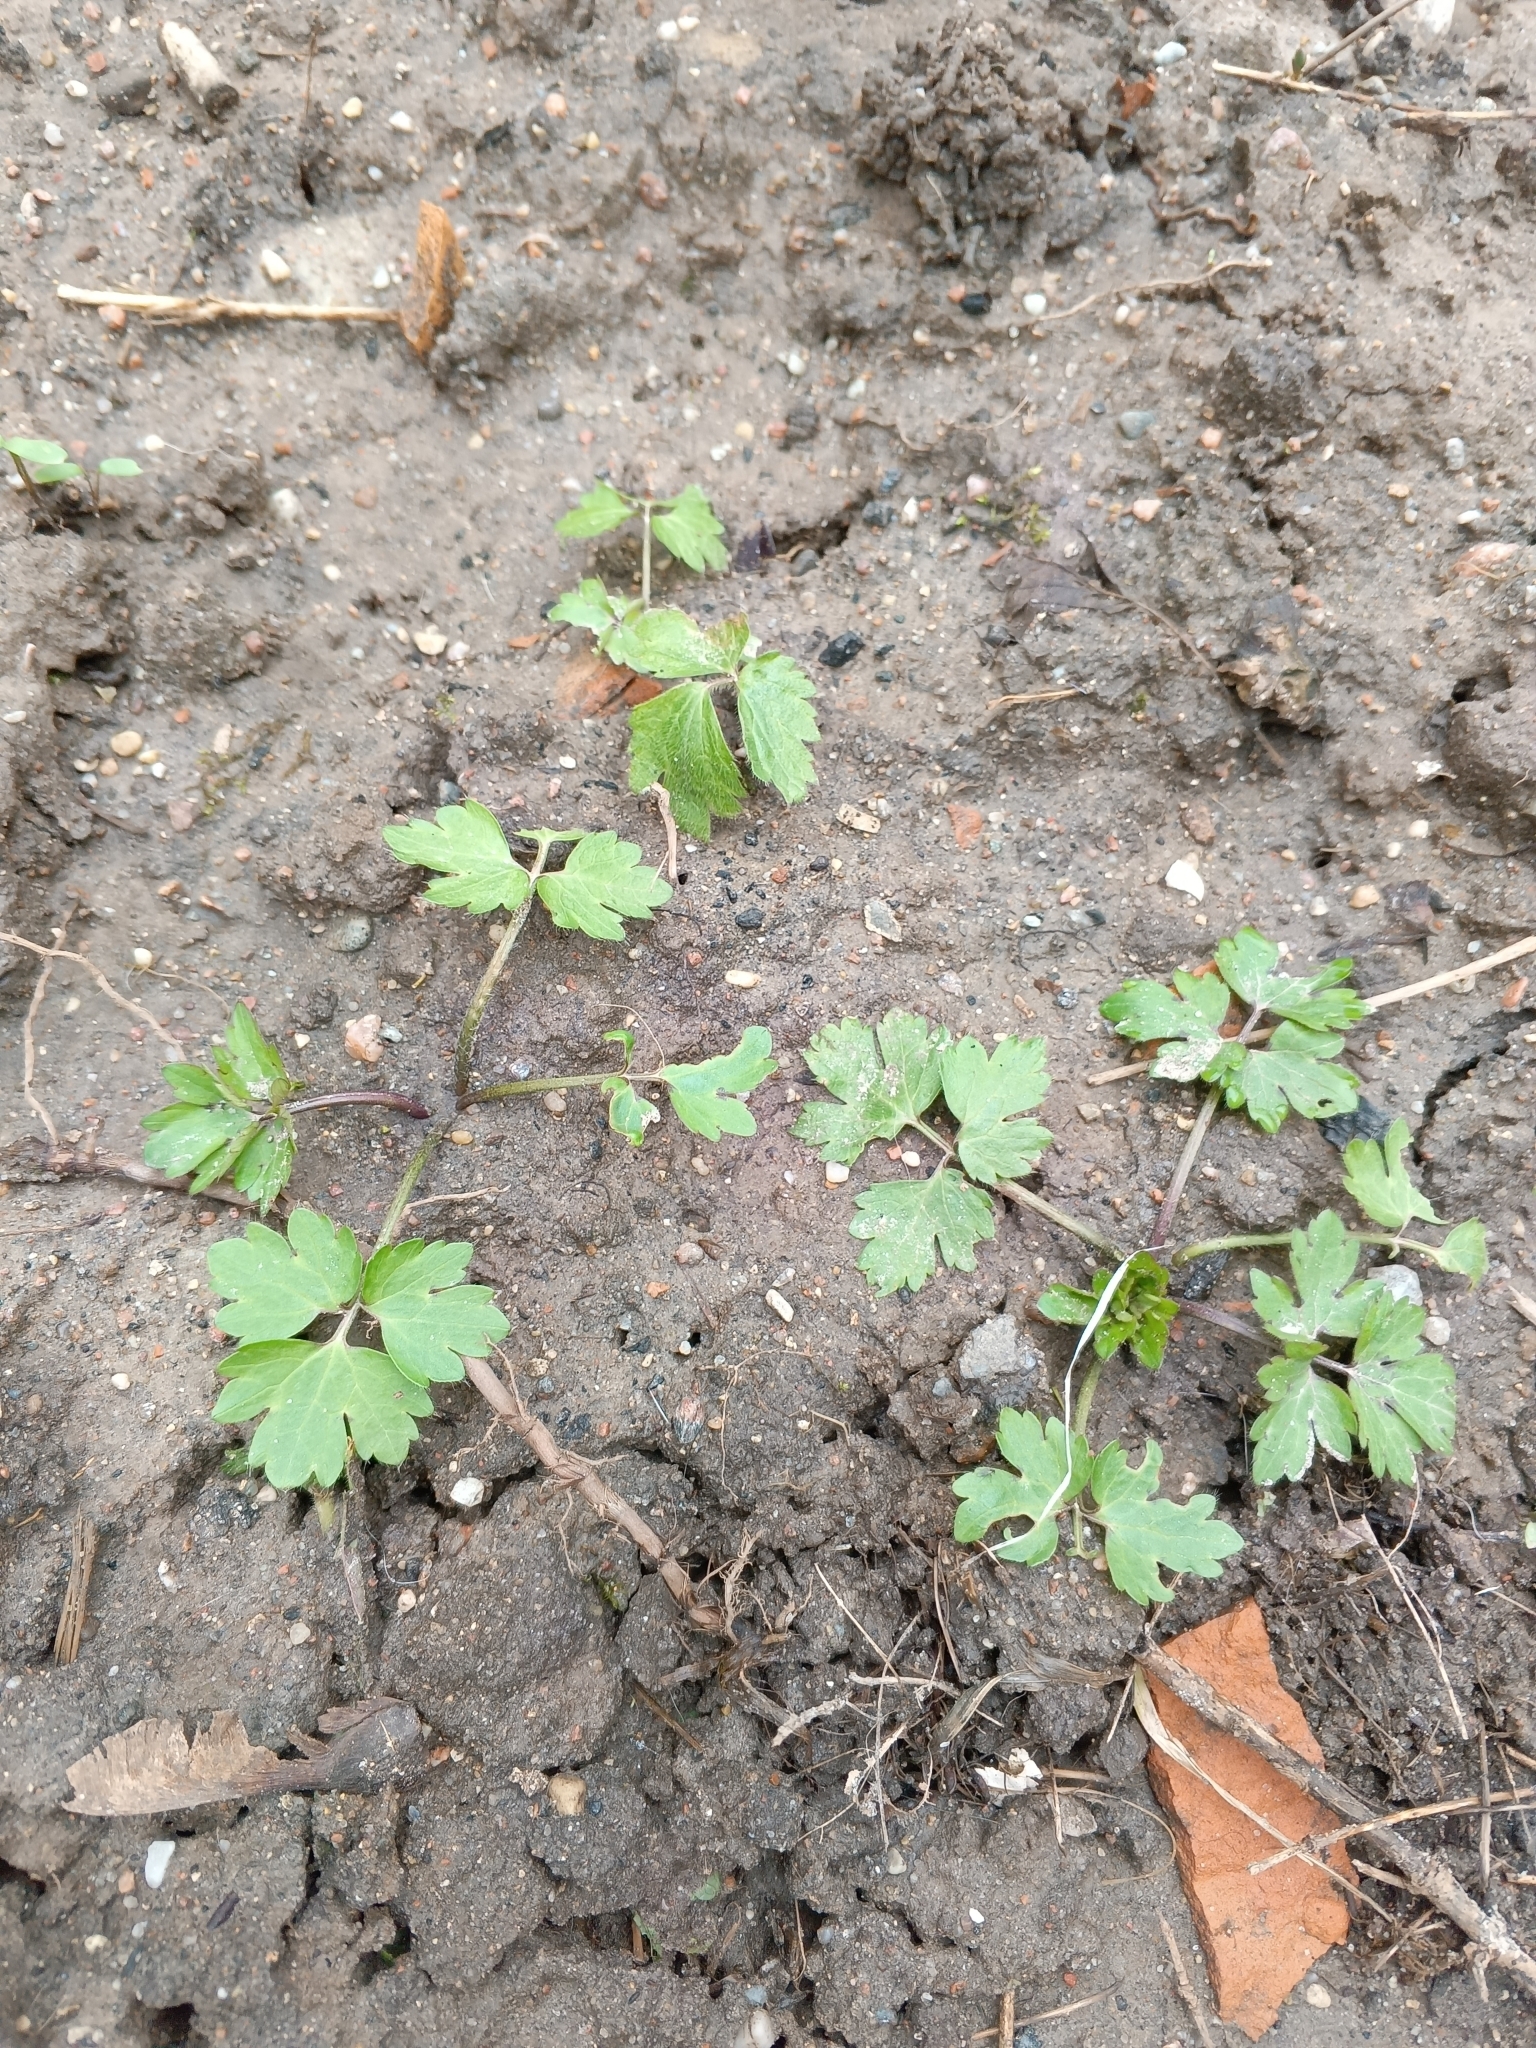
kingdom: Plantae
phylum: Tracheophyta
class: Magnoliopsida
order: Ranunculales
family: Ranunculaceae
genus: Ranunculus
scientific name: Ranunculus repens
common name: Creeping buttercup
